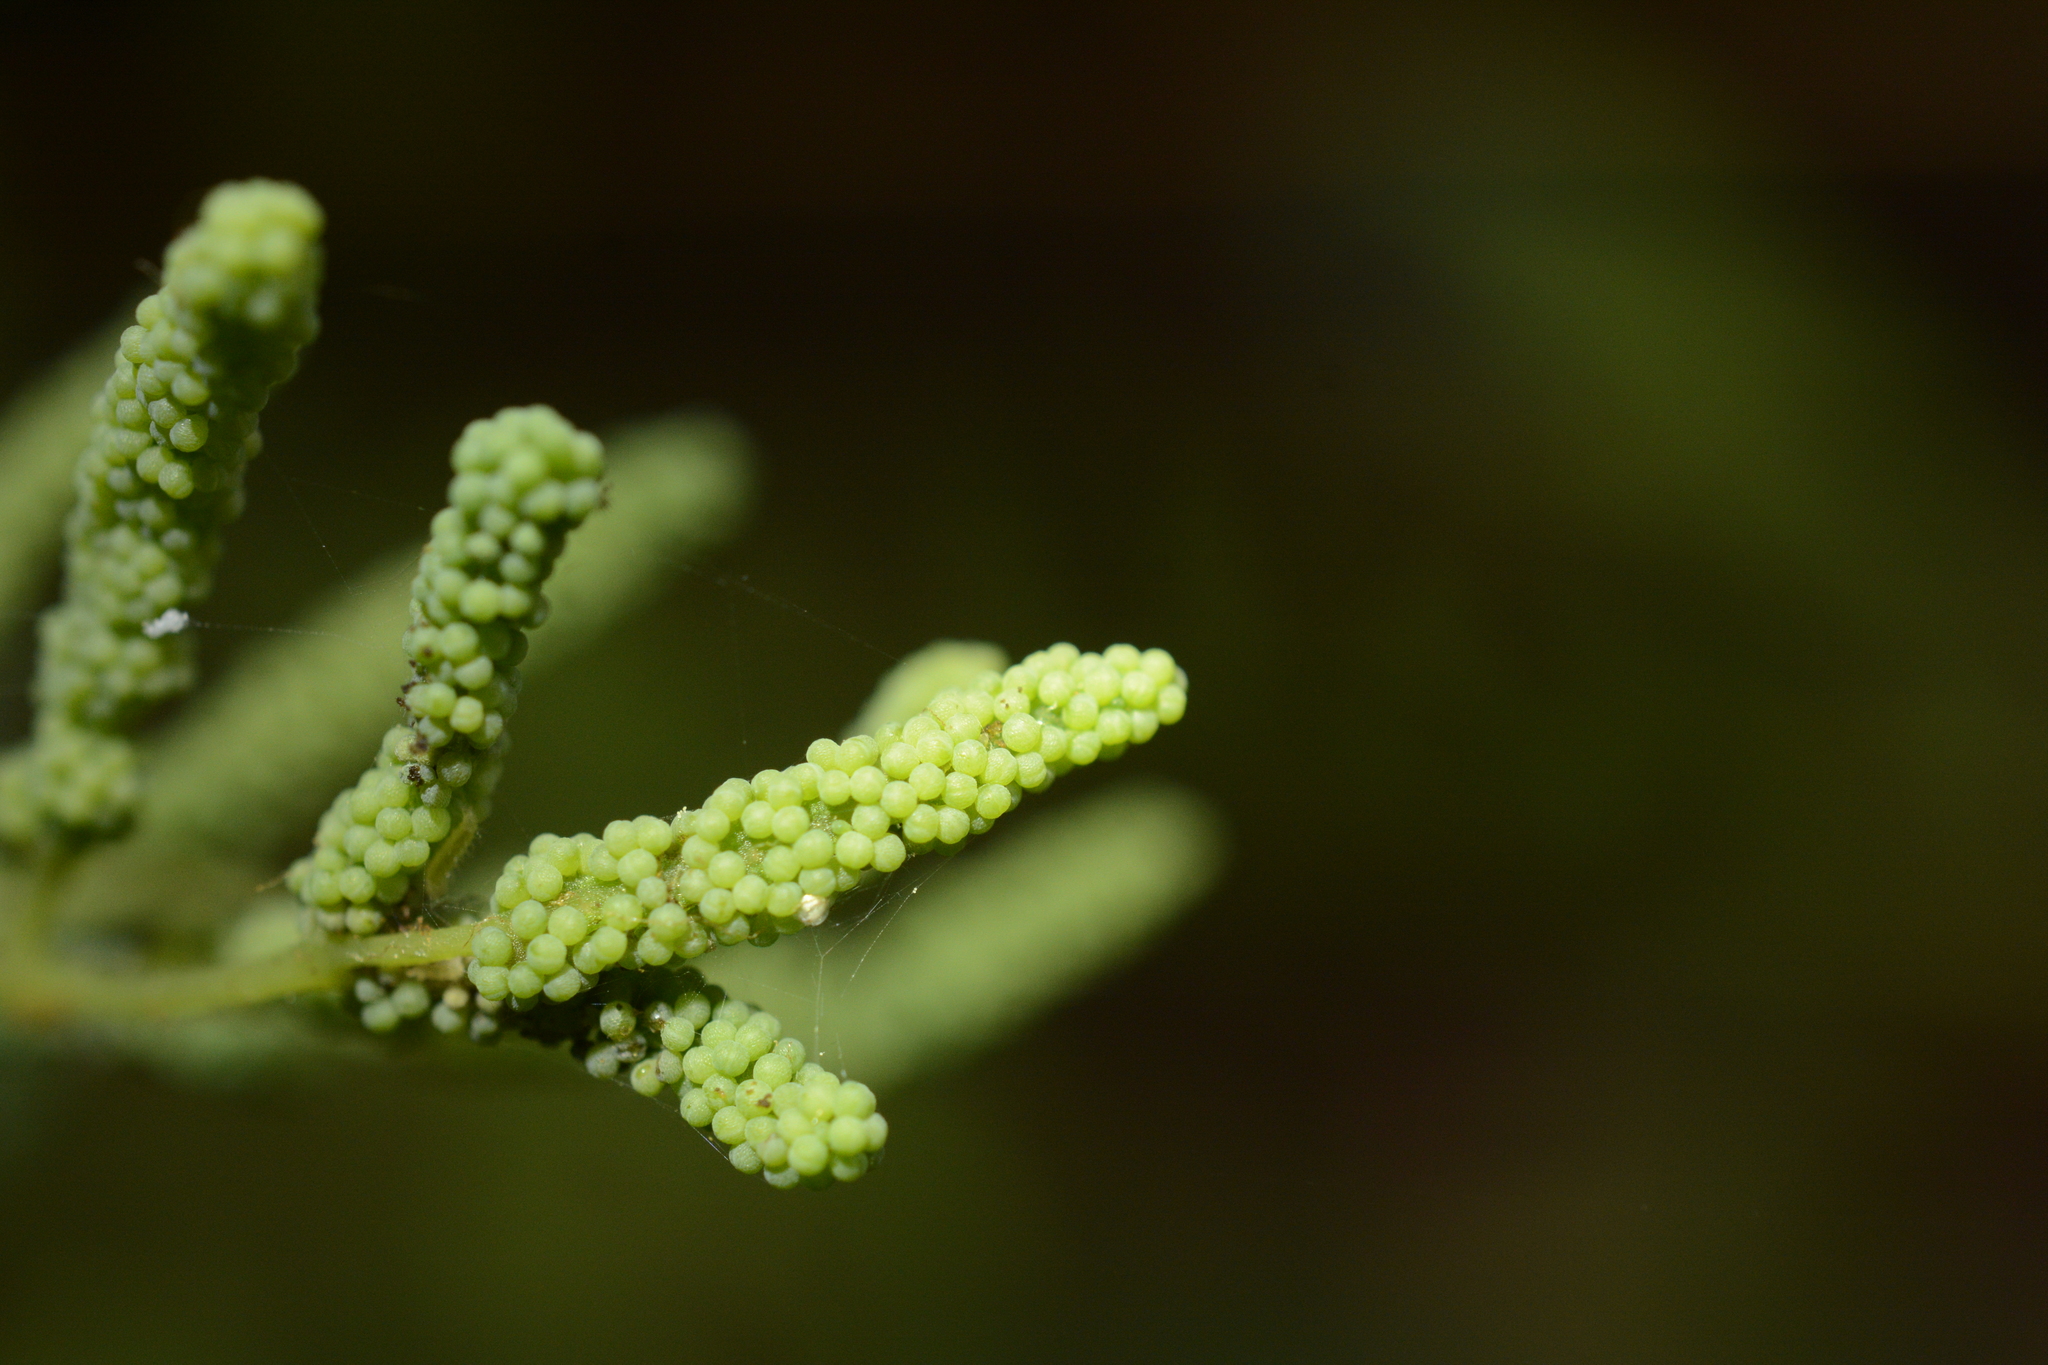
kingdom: Plantae
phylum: Tracheophyta
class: Polypodiopsida
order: Osmundales
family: Osmundaceae
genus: Osmunda
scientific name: Osmunda acuta
